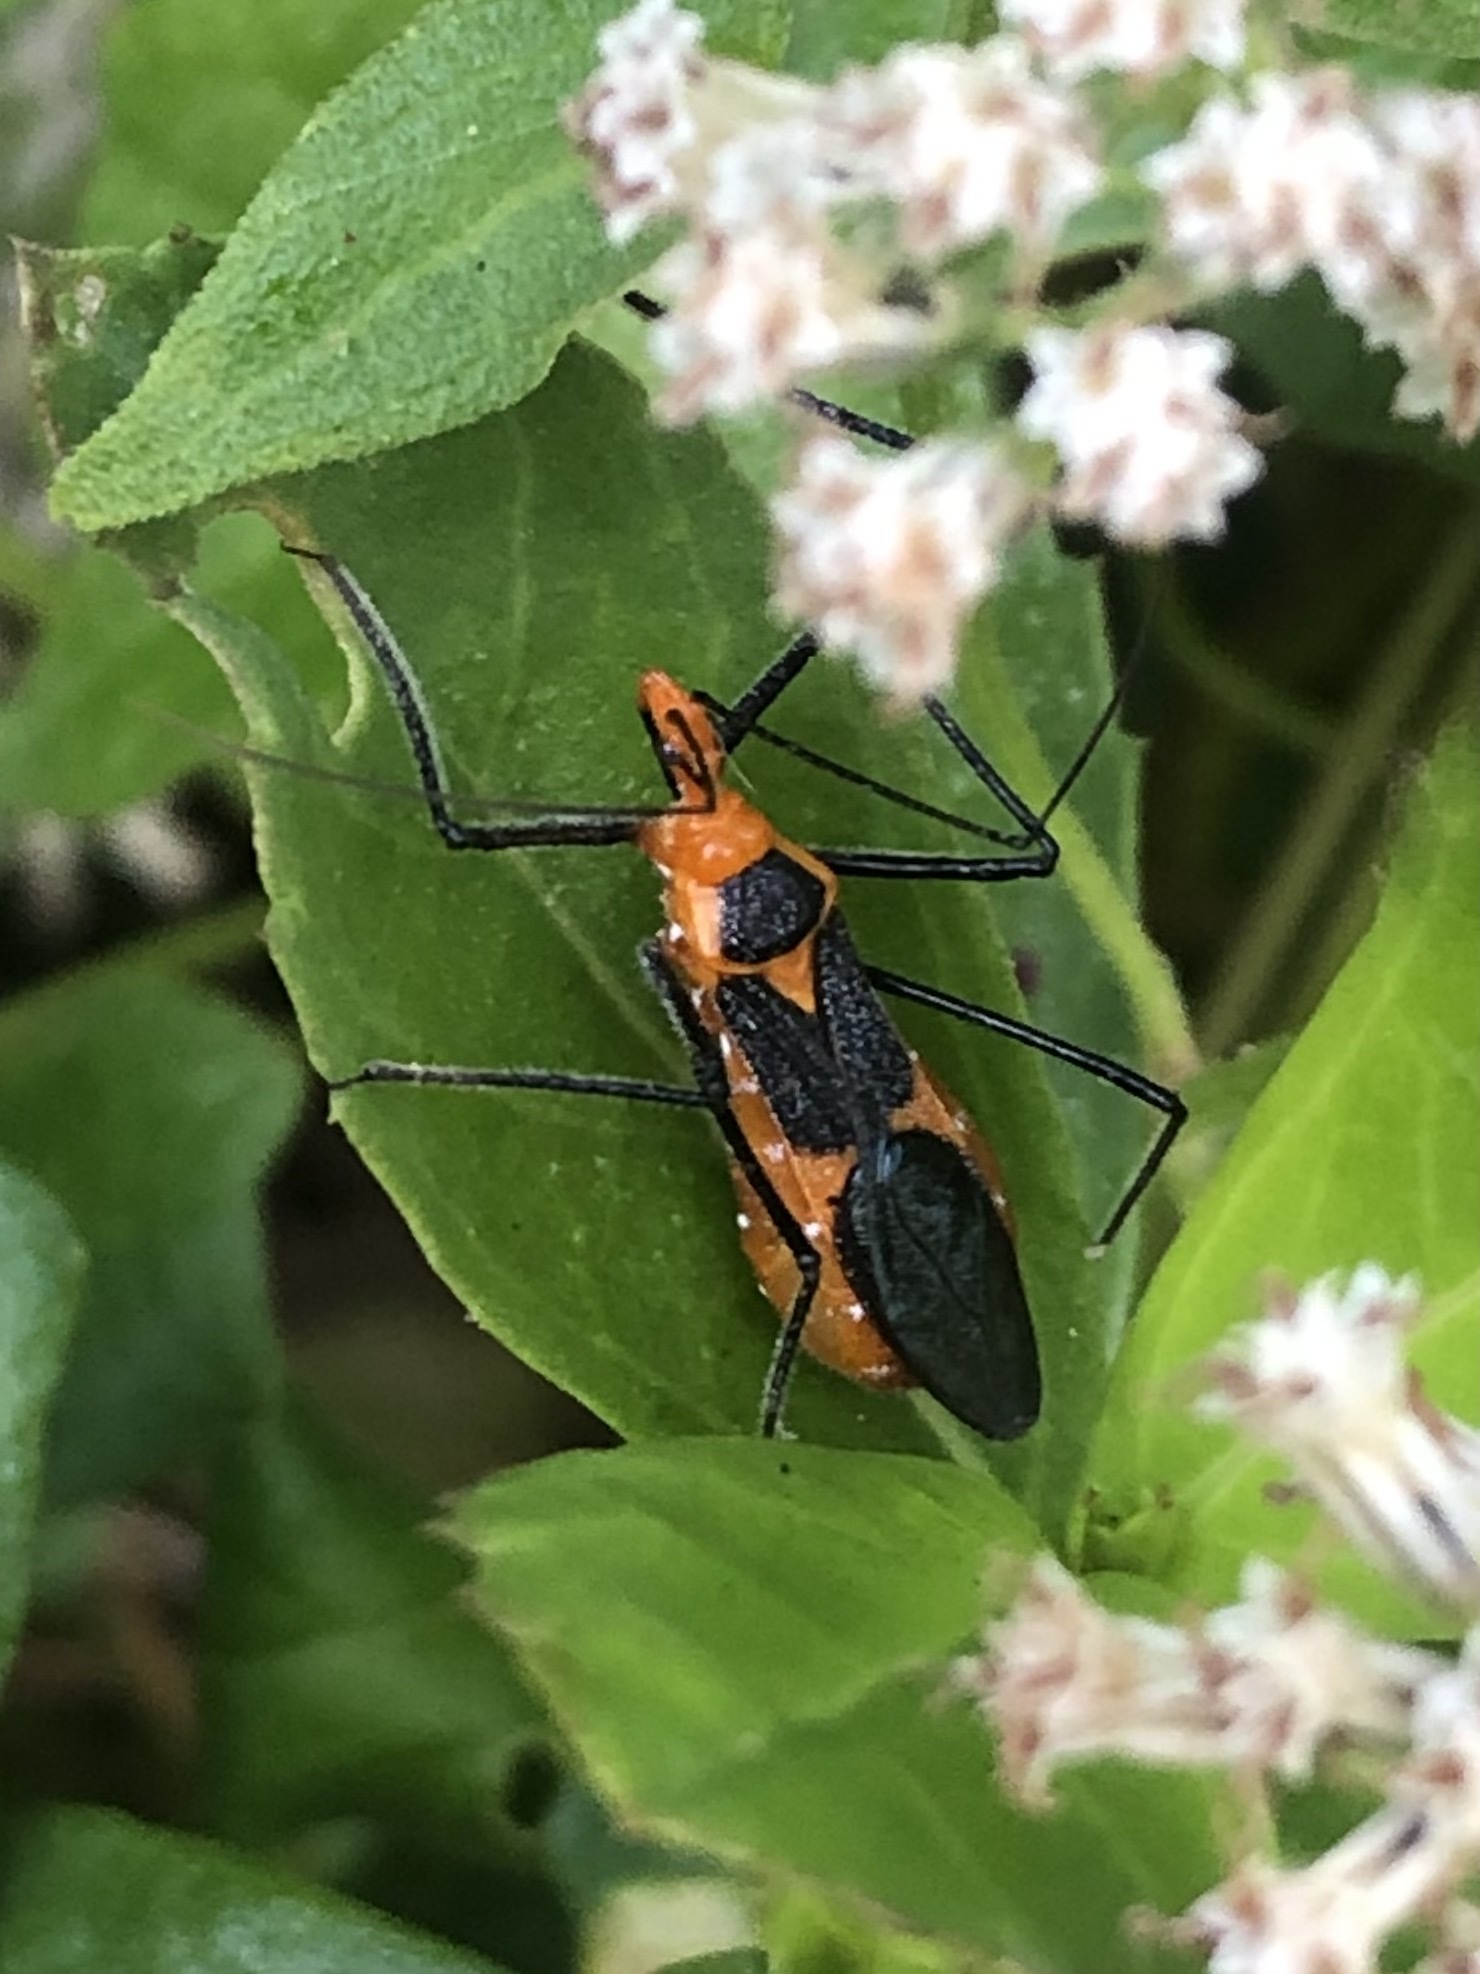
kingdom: Animalia
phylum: Arthropoda
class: Insecta
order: Hemiptera
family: Reduviidae
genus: Zelus
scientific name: Zelus longipes
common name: Milkweed assassin bug
